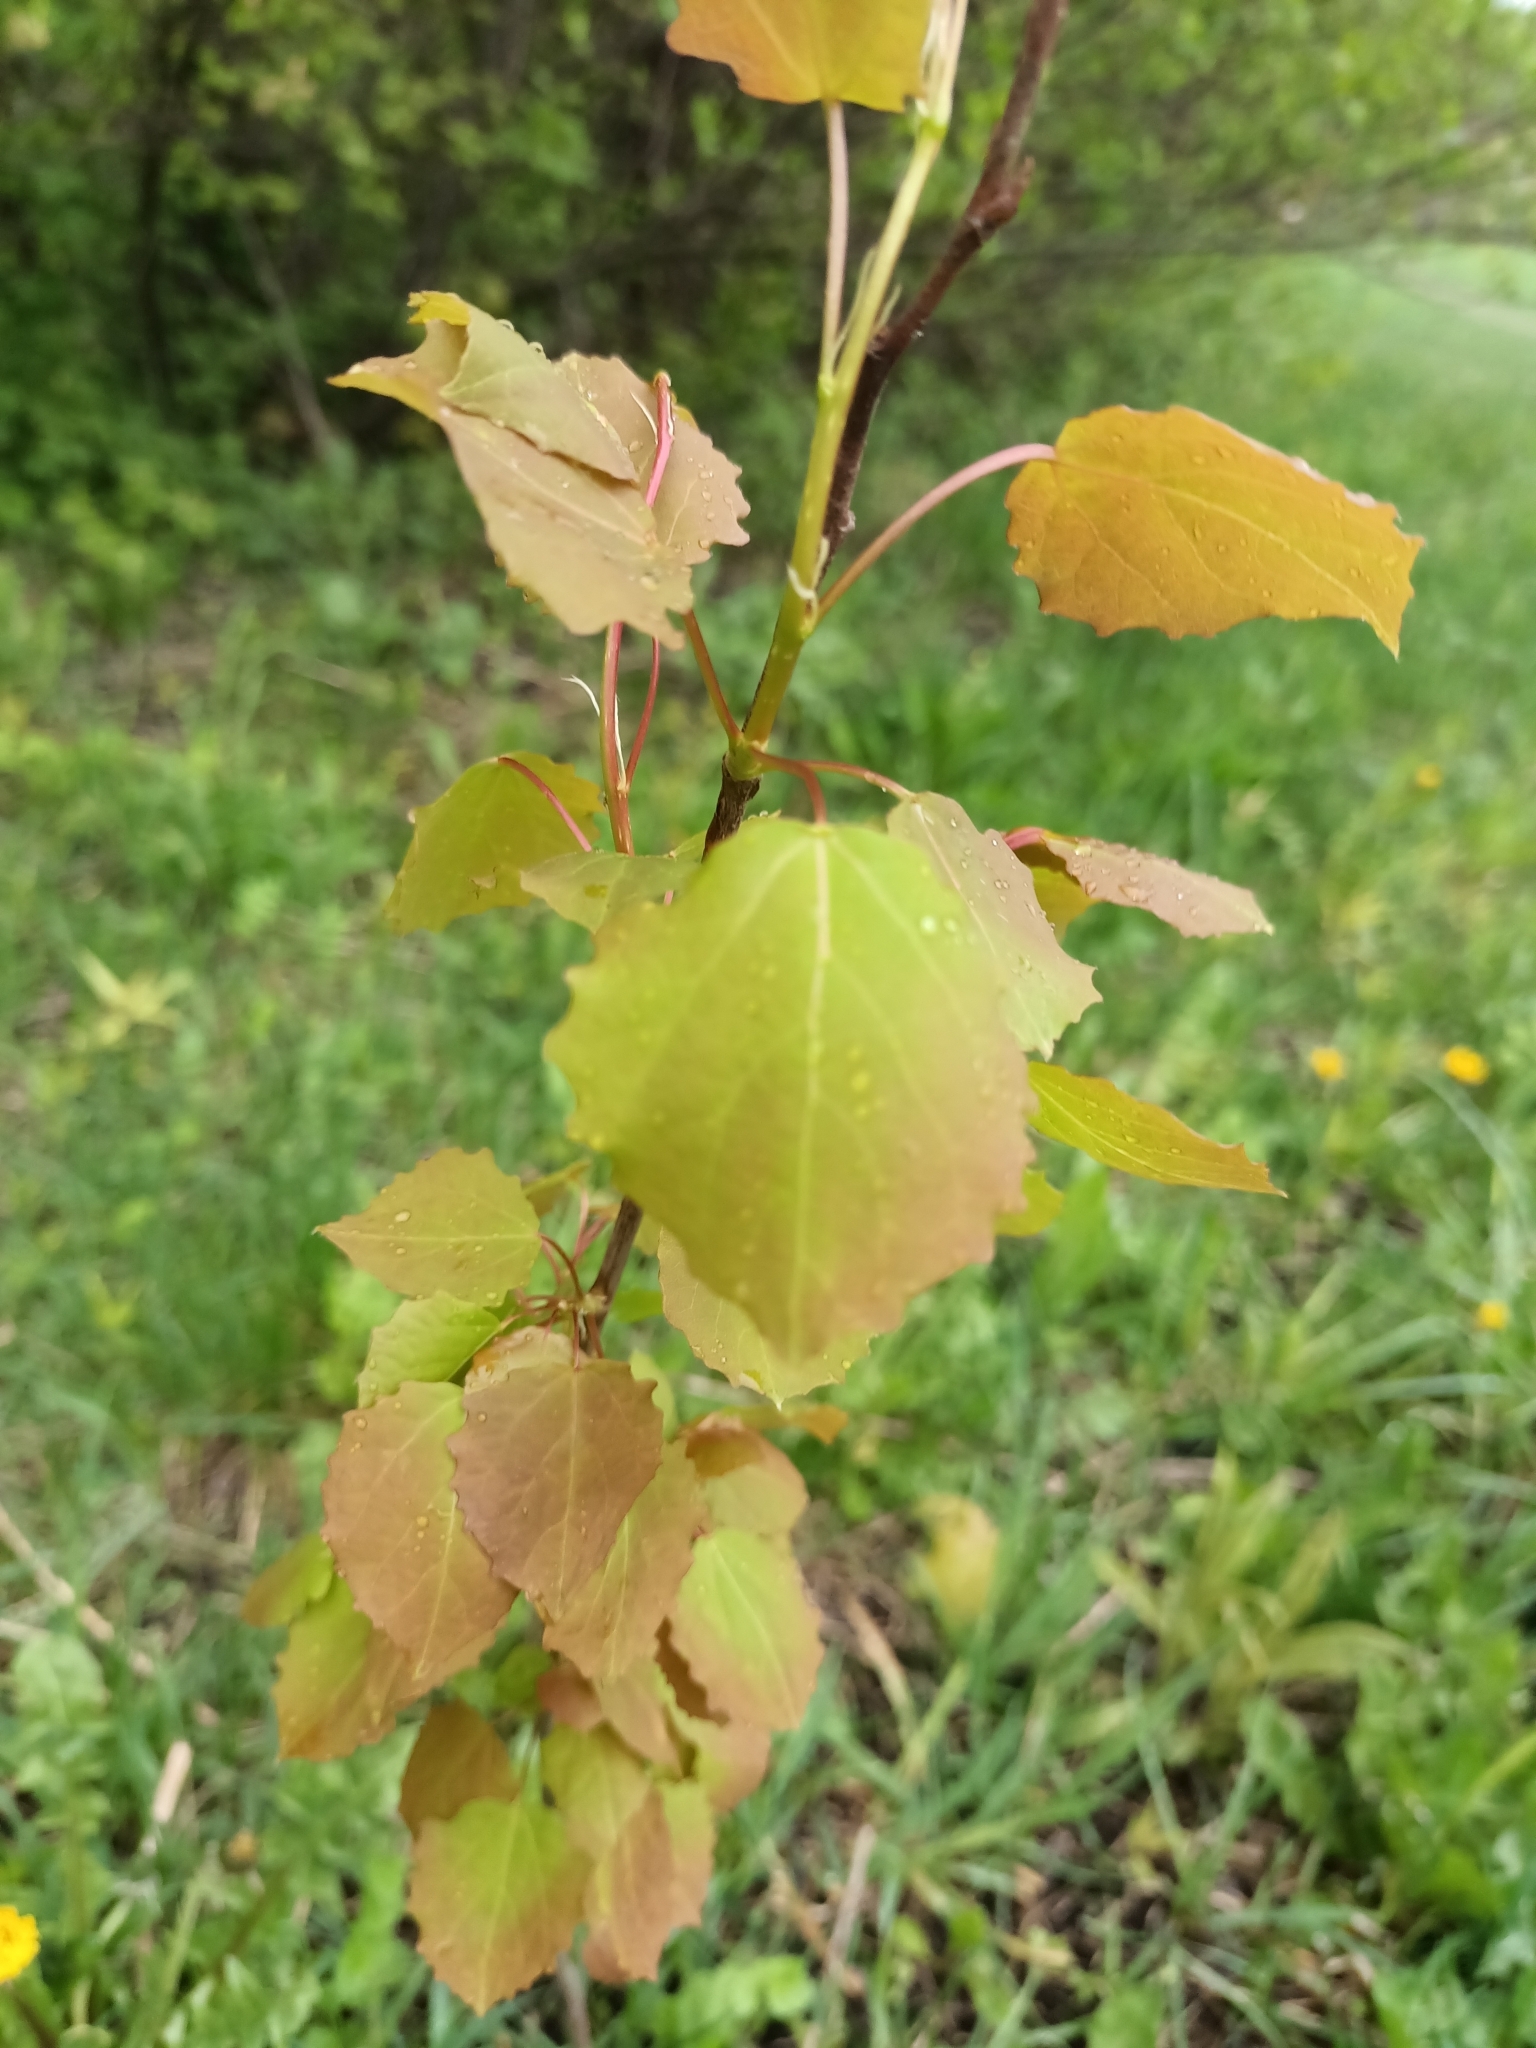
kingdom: Plantae
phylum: Tracheophyta
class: Magnoliopsida
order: Malpighiales
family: Salicaceae
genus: Populus
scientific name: Populus tremula
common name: European aspen
